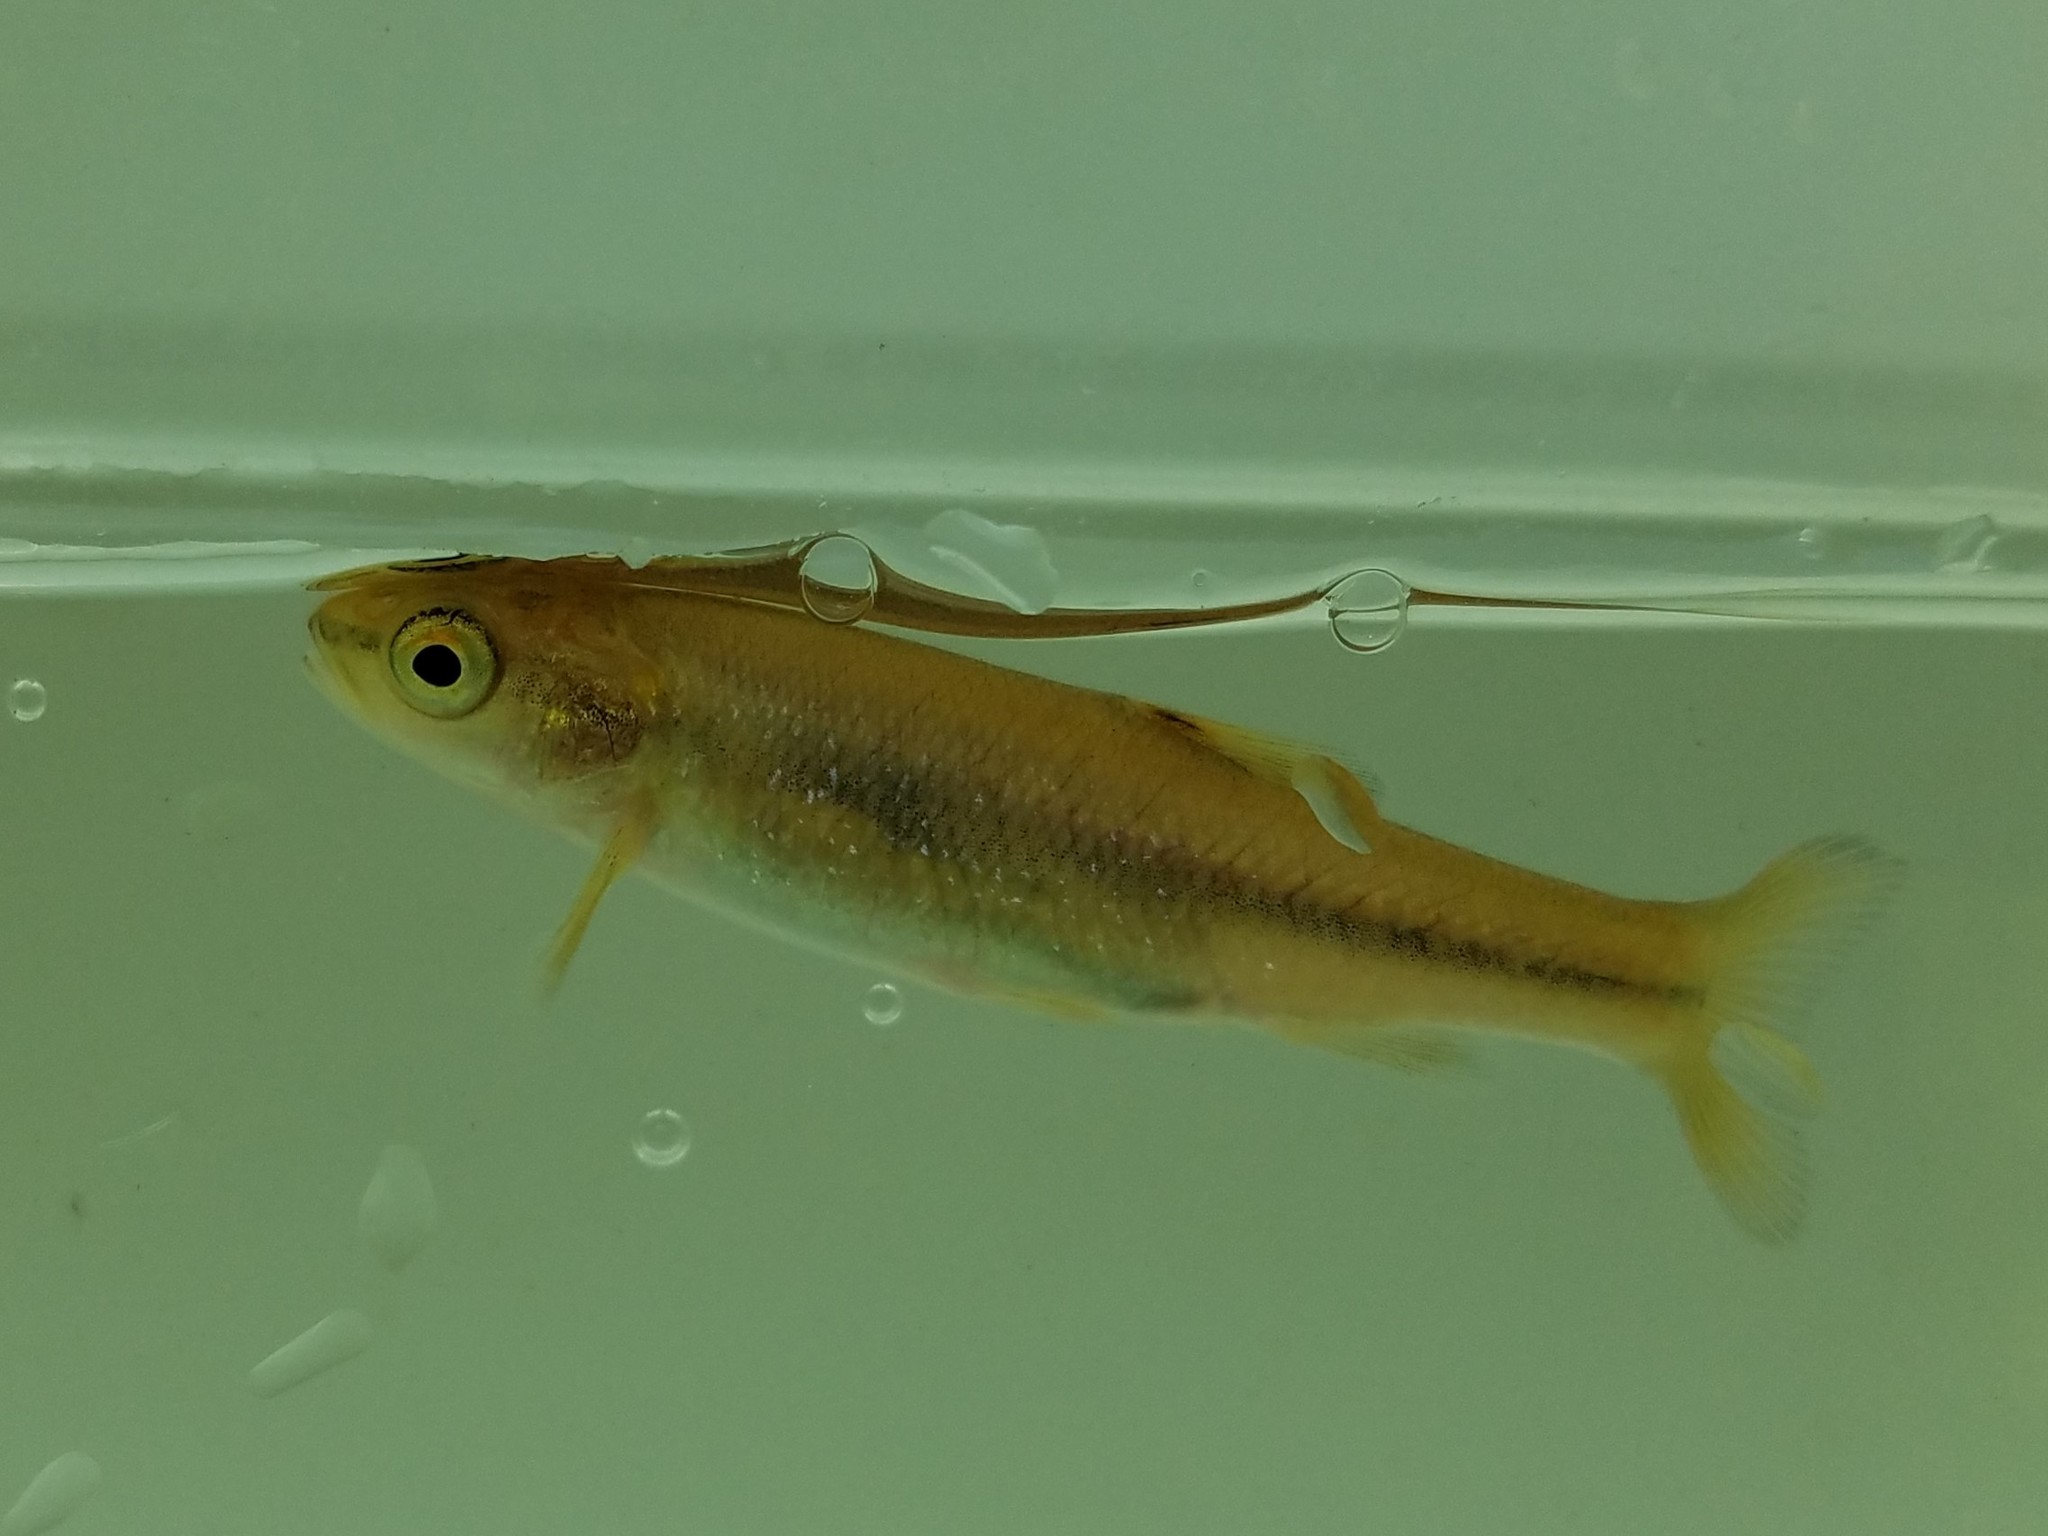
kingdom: Animalia
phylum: Chordata
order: Cypriniformes
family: Cyprinidae
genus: Semotilus
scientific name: Semotilus atromaculatus
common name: Creek chub
